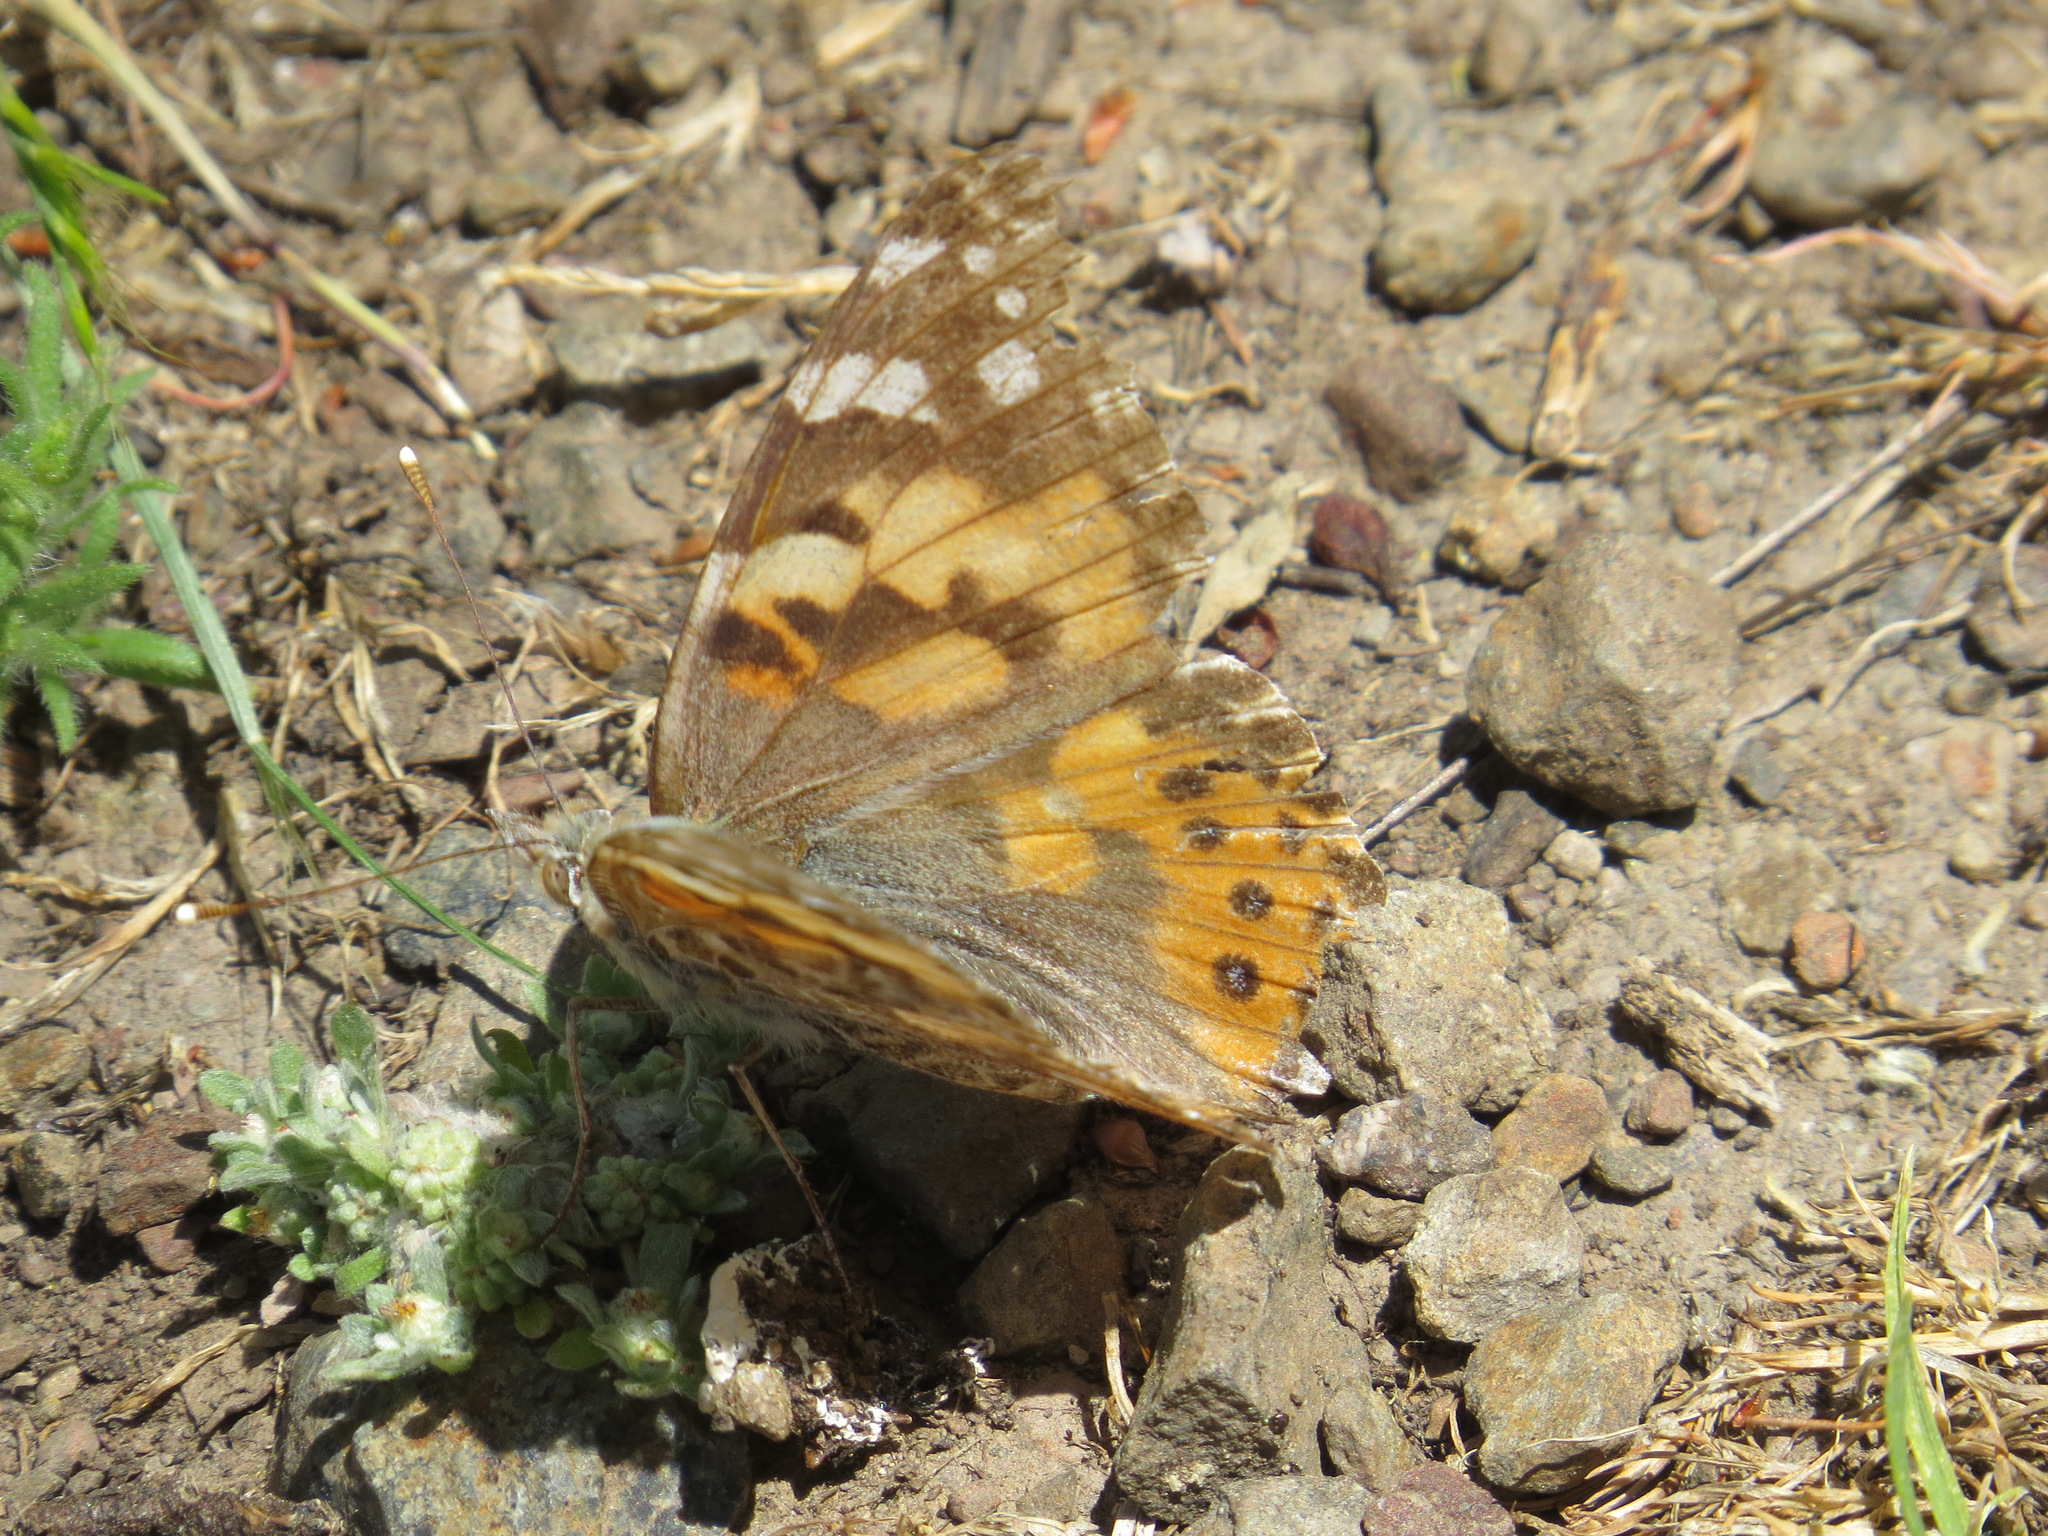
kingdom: Animalia
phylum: Arthropoda
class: Insecta
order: Lepidoptera
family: Nymphalidae
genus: Vanessa
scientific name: Vanessa cardui
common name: Painted lady
